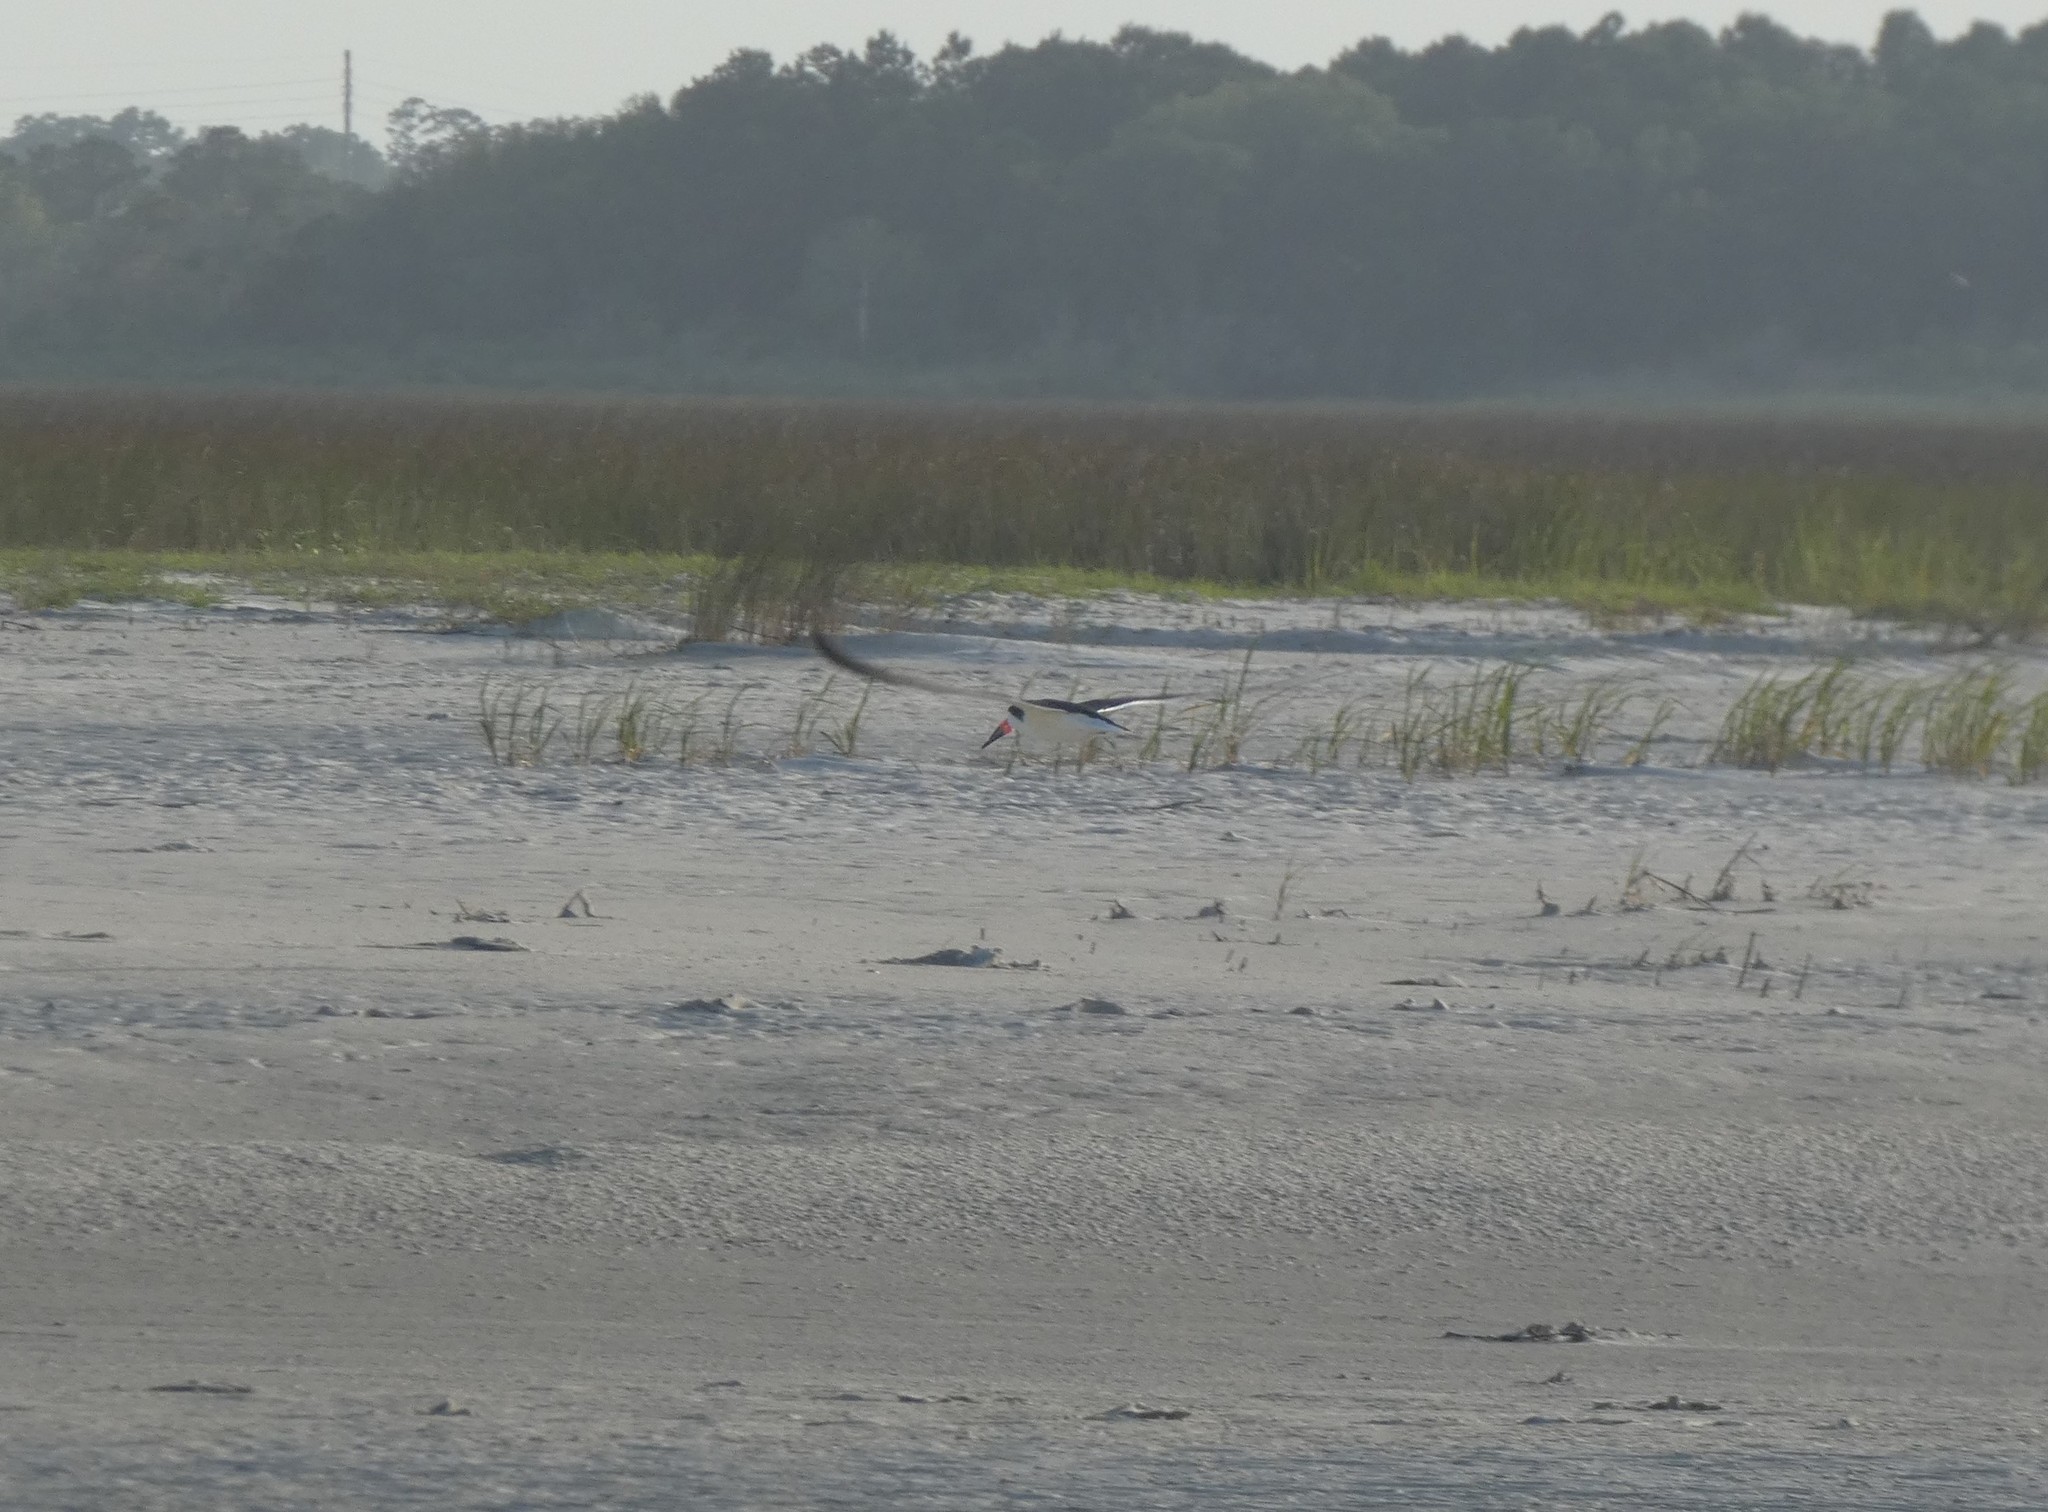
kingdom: Animalia
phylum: Chordata
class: Aves
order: Charadriiformes
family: Laridae
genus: Rynchops
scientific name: Rynchops niger
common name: Black skimmer
